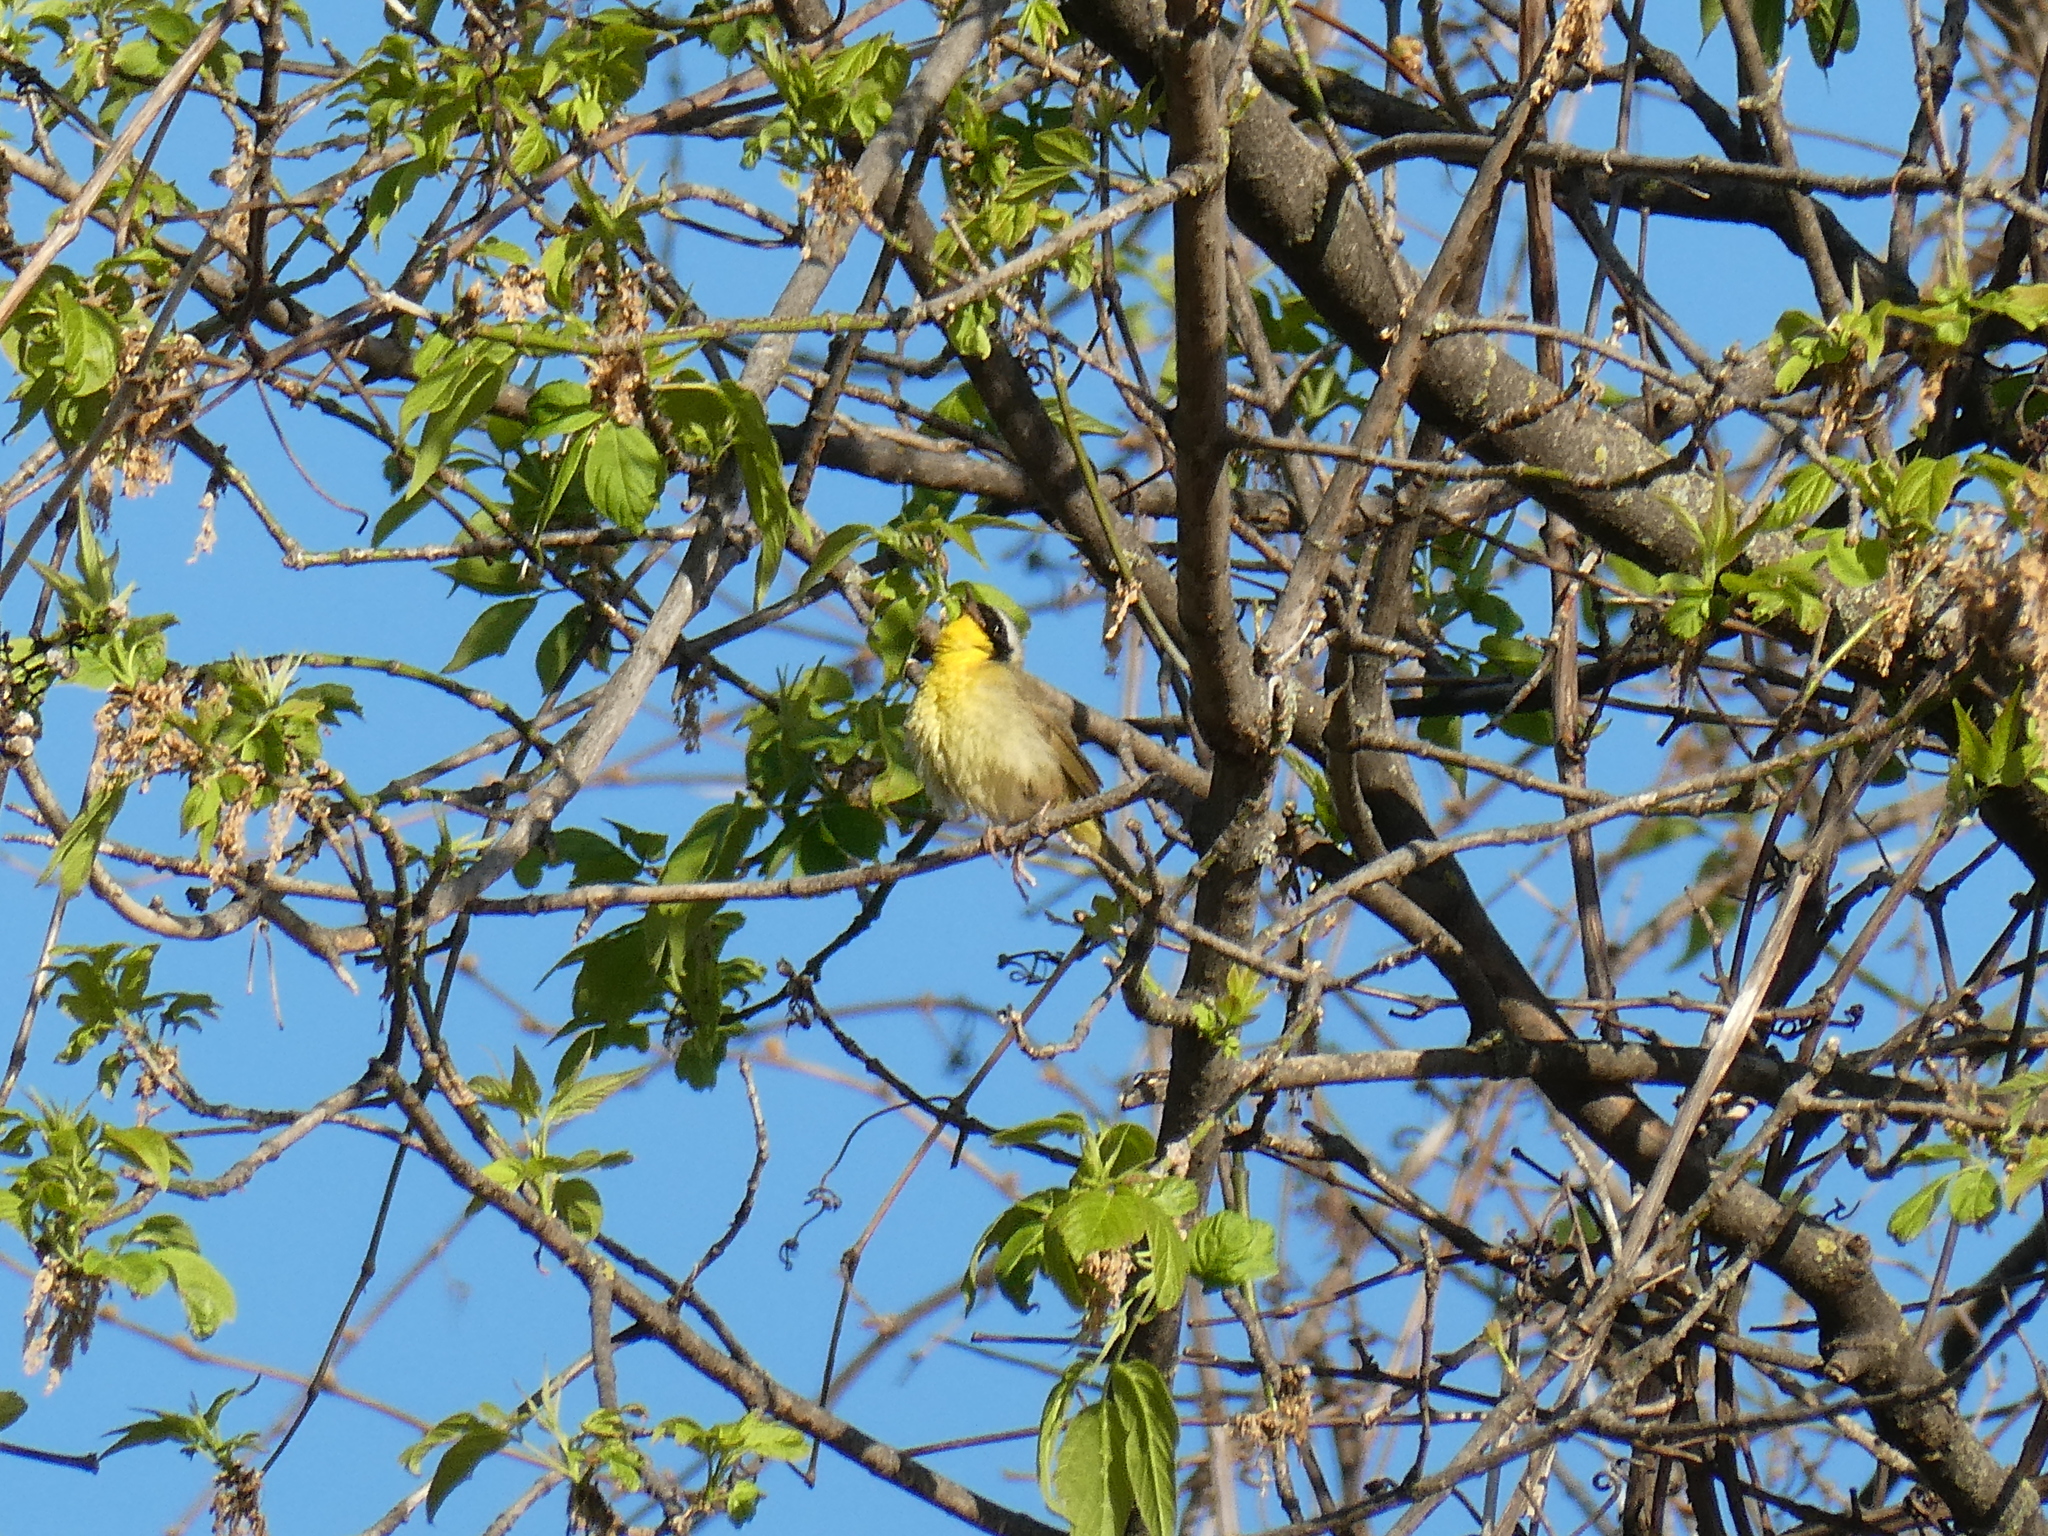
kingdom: Animalia
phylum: Chordata
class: Aves
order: Passeriformes
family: Parulidae
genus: Geothlypis
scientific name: Geothlypis trichas
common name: Common yellowthroat
